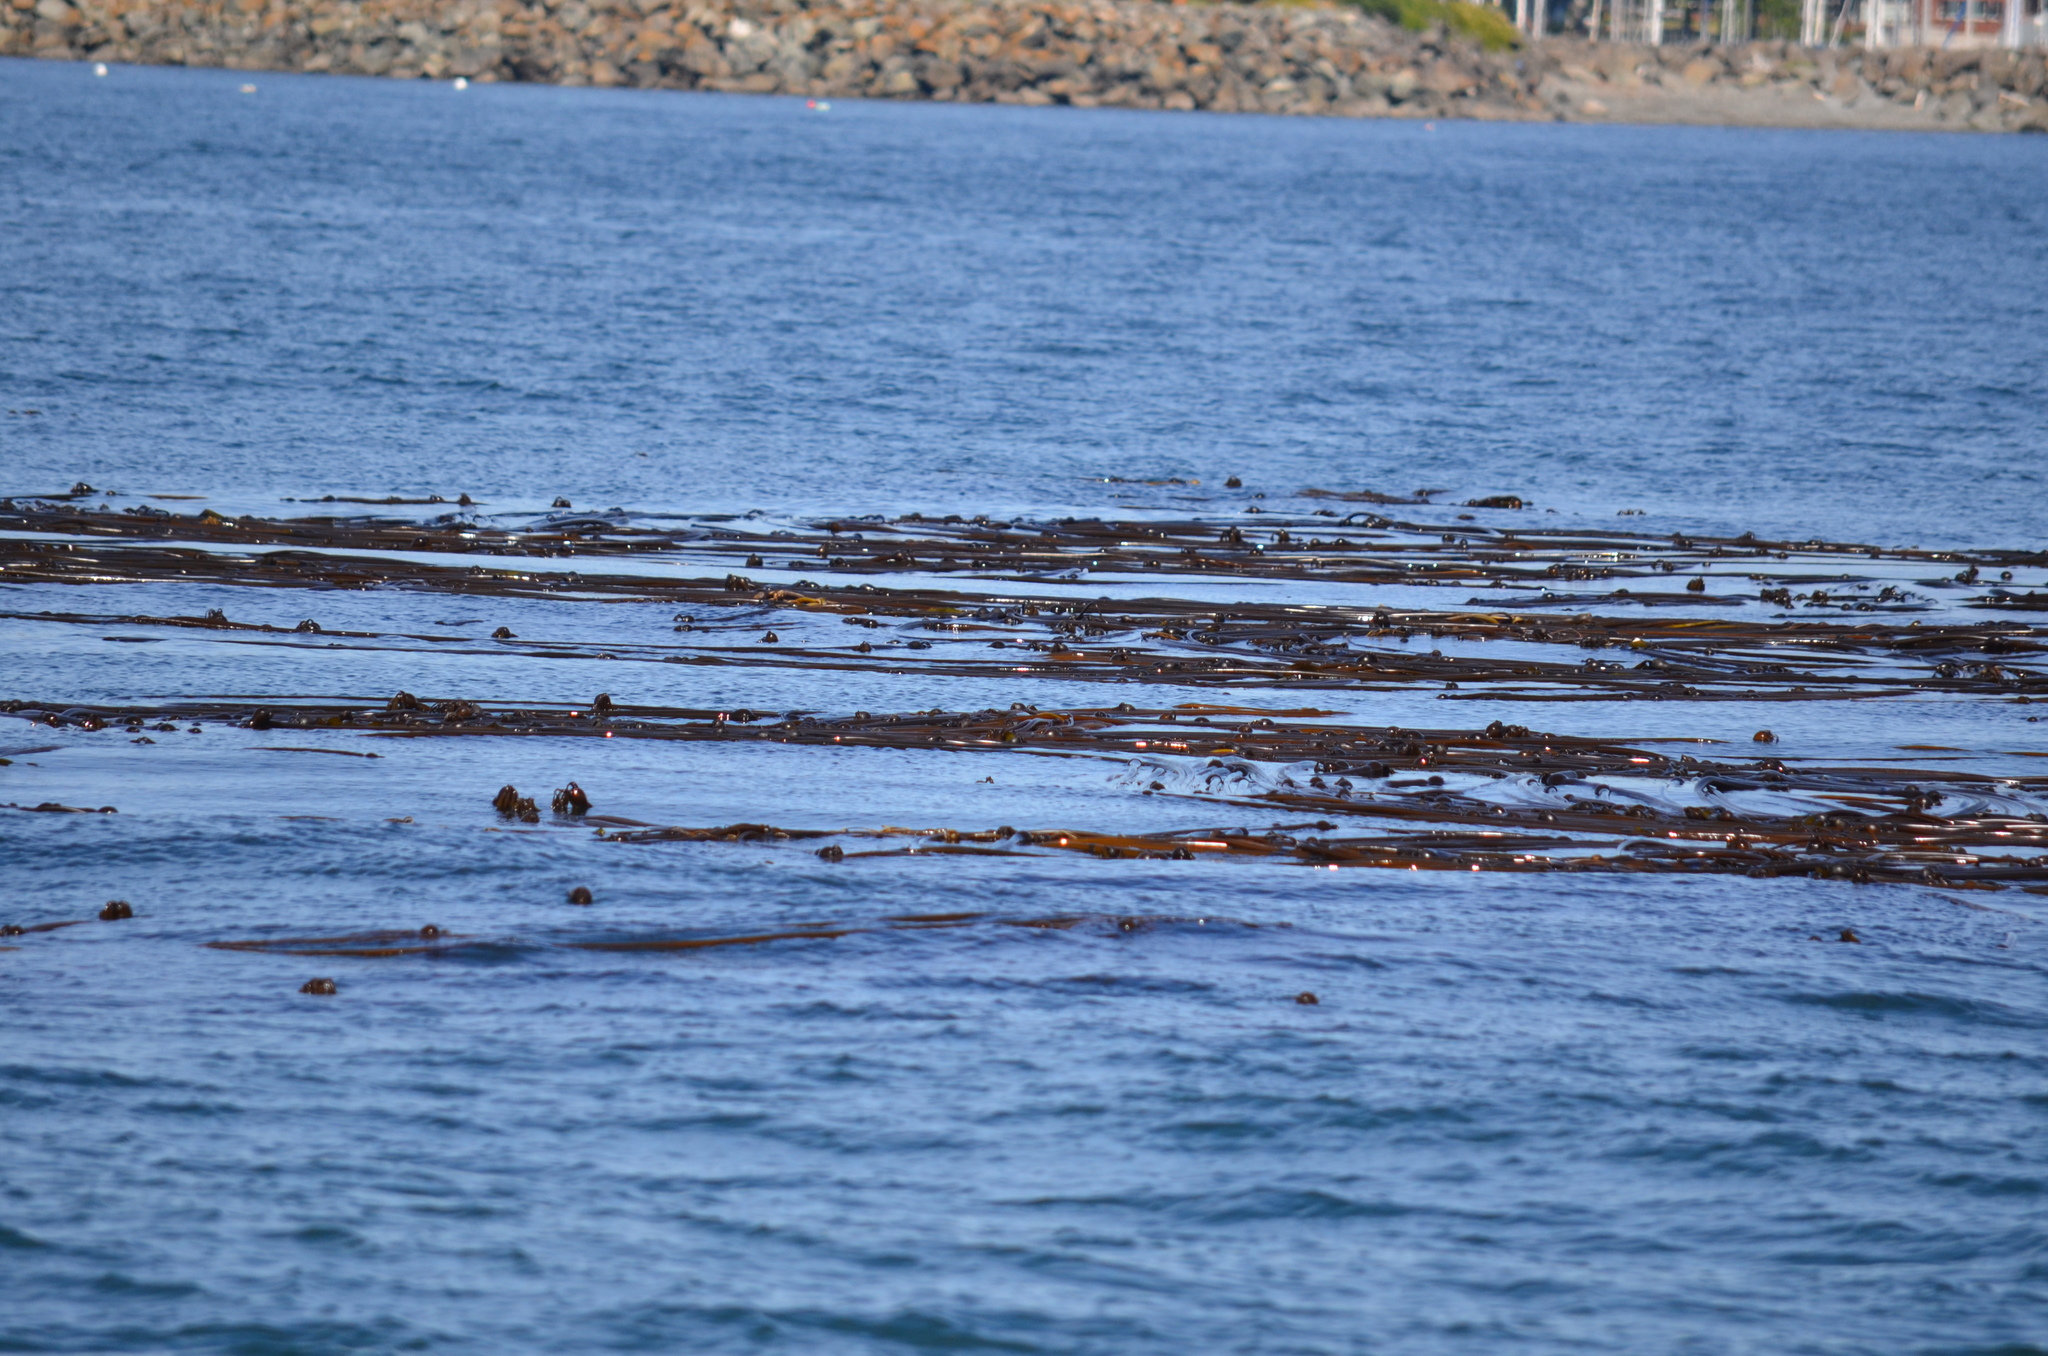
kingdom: Chromista
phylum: Ochrophyta
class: Phaeophyceae
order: Laminariales
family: Laminariaceae
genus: Nereocystis
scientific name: Nereocystis luetkeana
